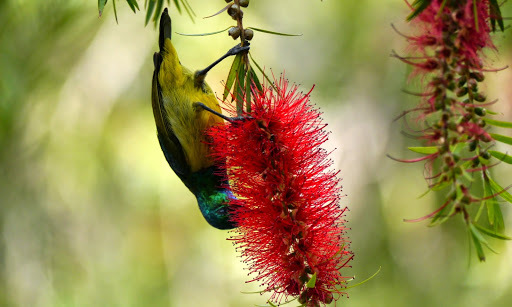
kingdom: Animalia
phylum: Chordata
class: Aves
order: Passeriformes
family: Nectariniidae
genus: Hedydipna
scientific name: Hedydipna collaris
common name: Collared sunbird
